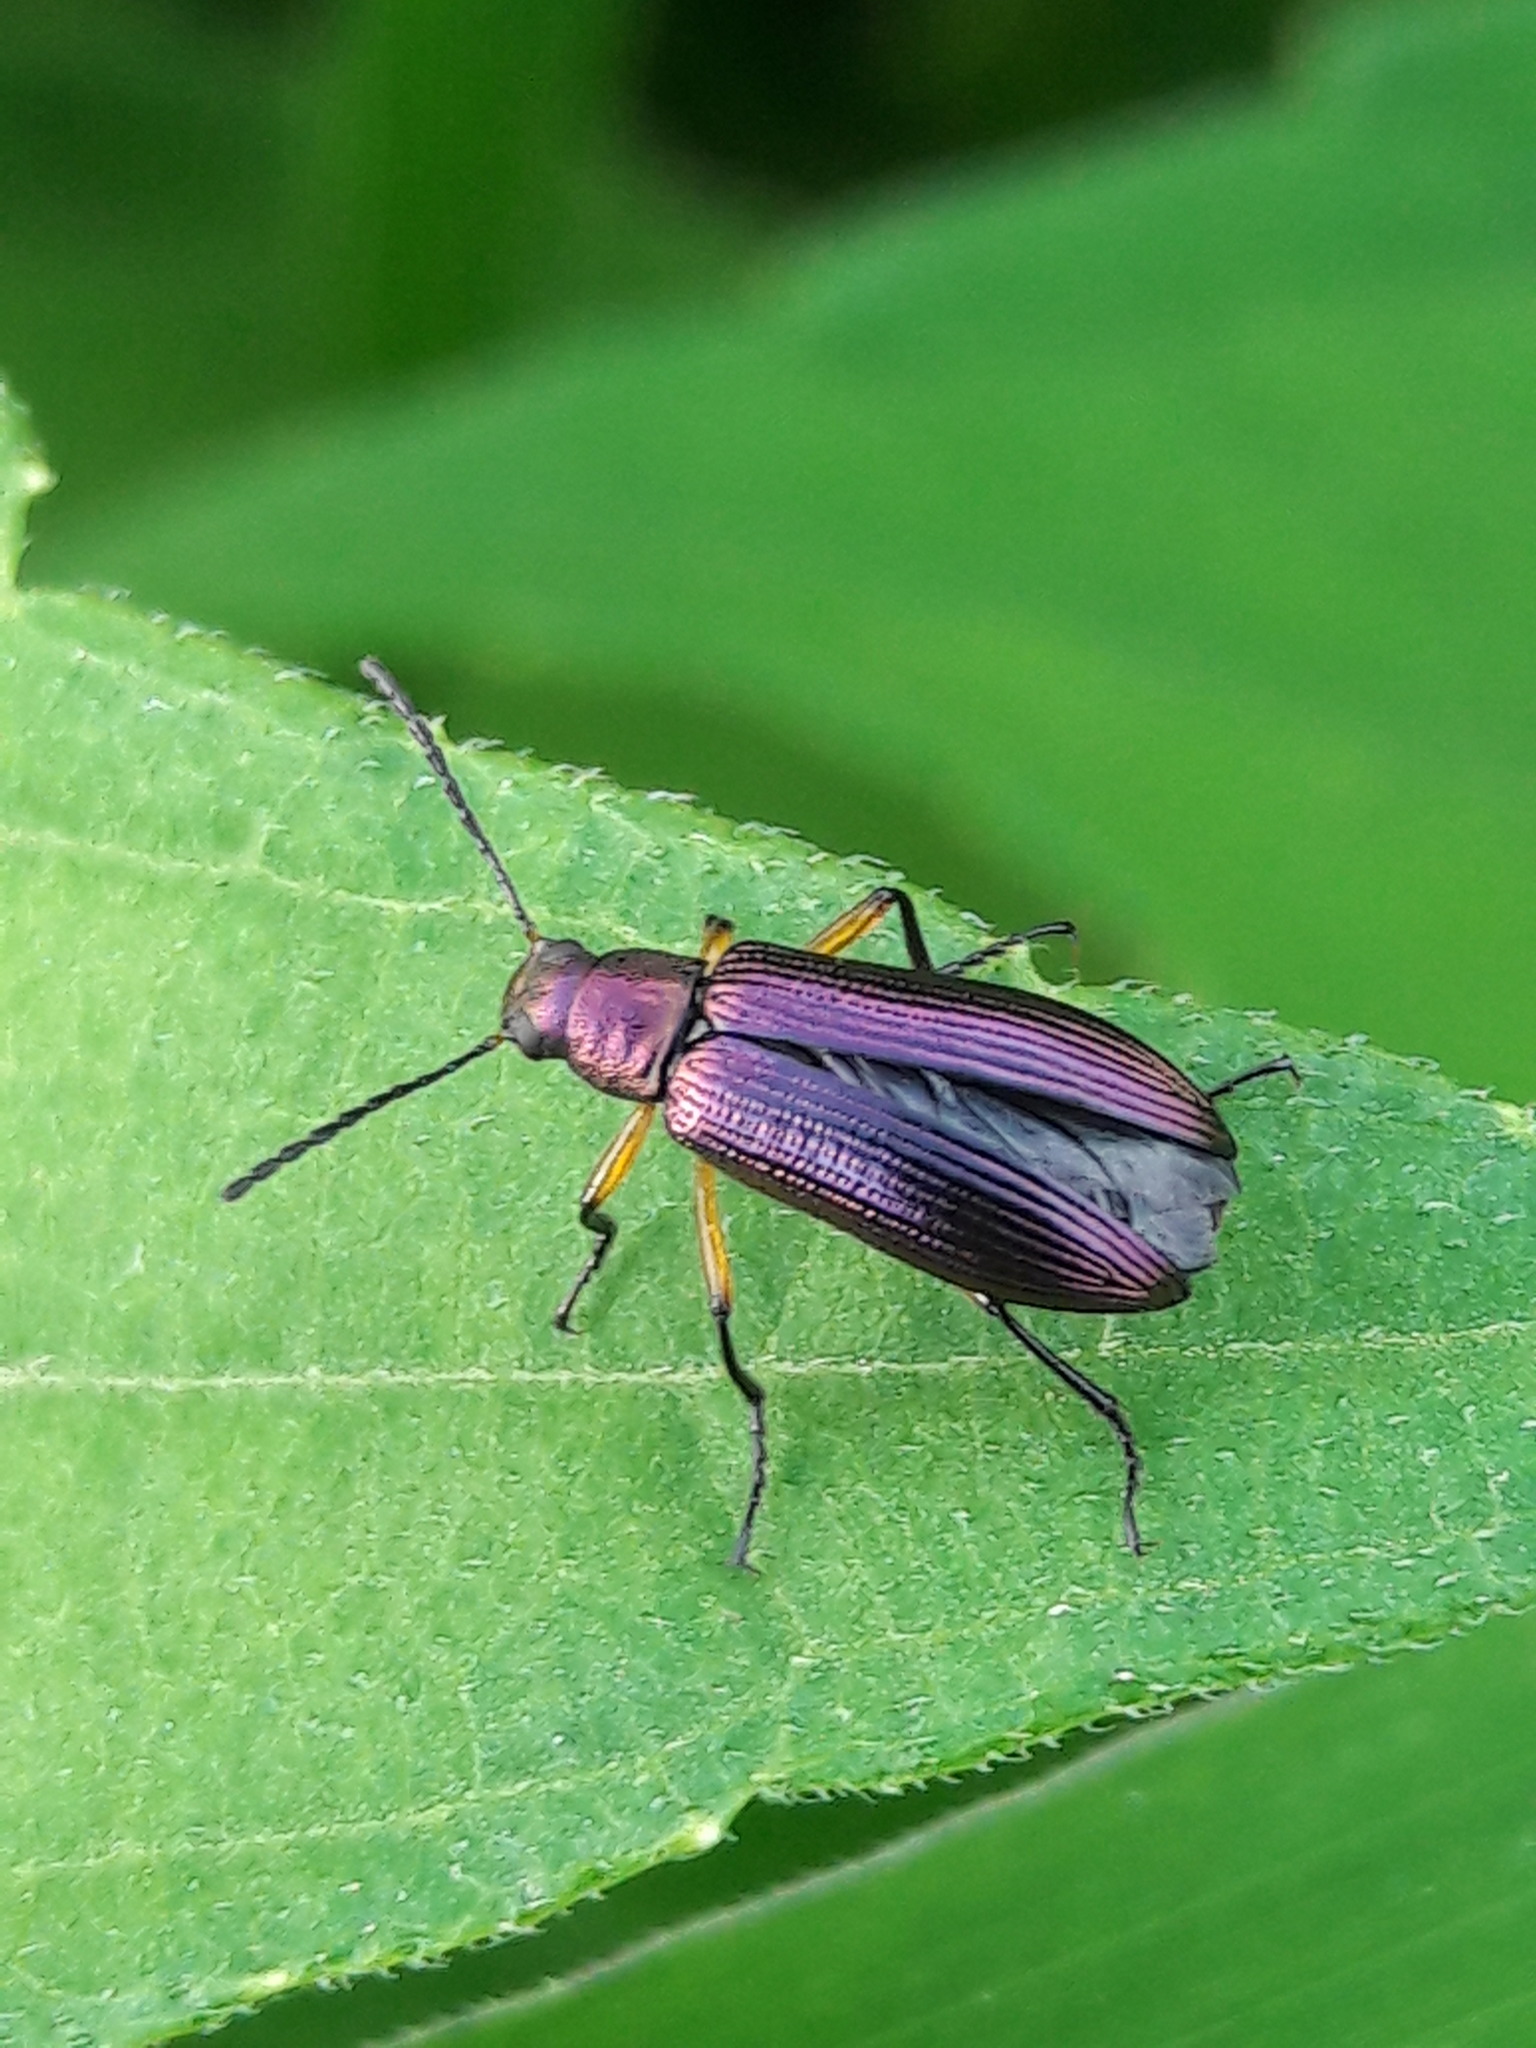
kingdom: Animalia
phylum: Arthropoda
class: Insecta
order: Coleoptera
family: Tenebrionidae
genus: Strongylium
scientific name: Strongylium
